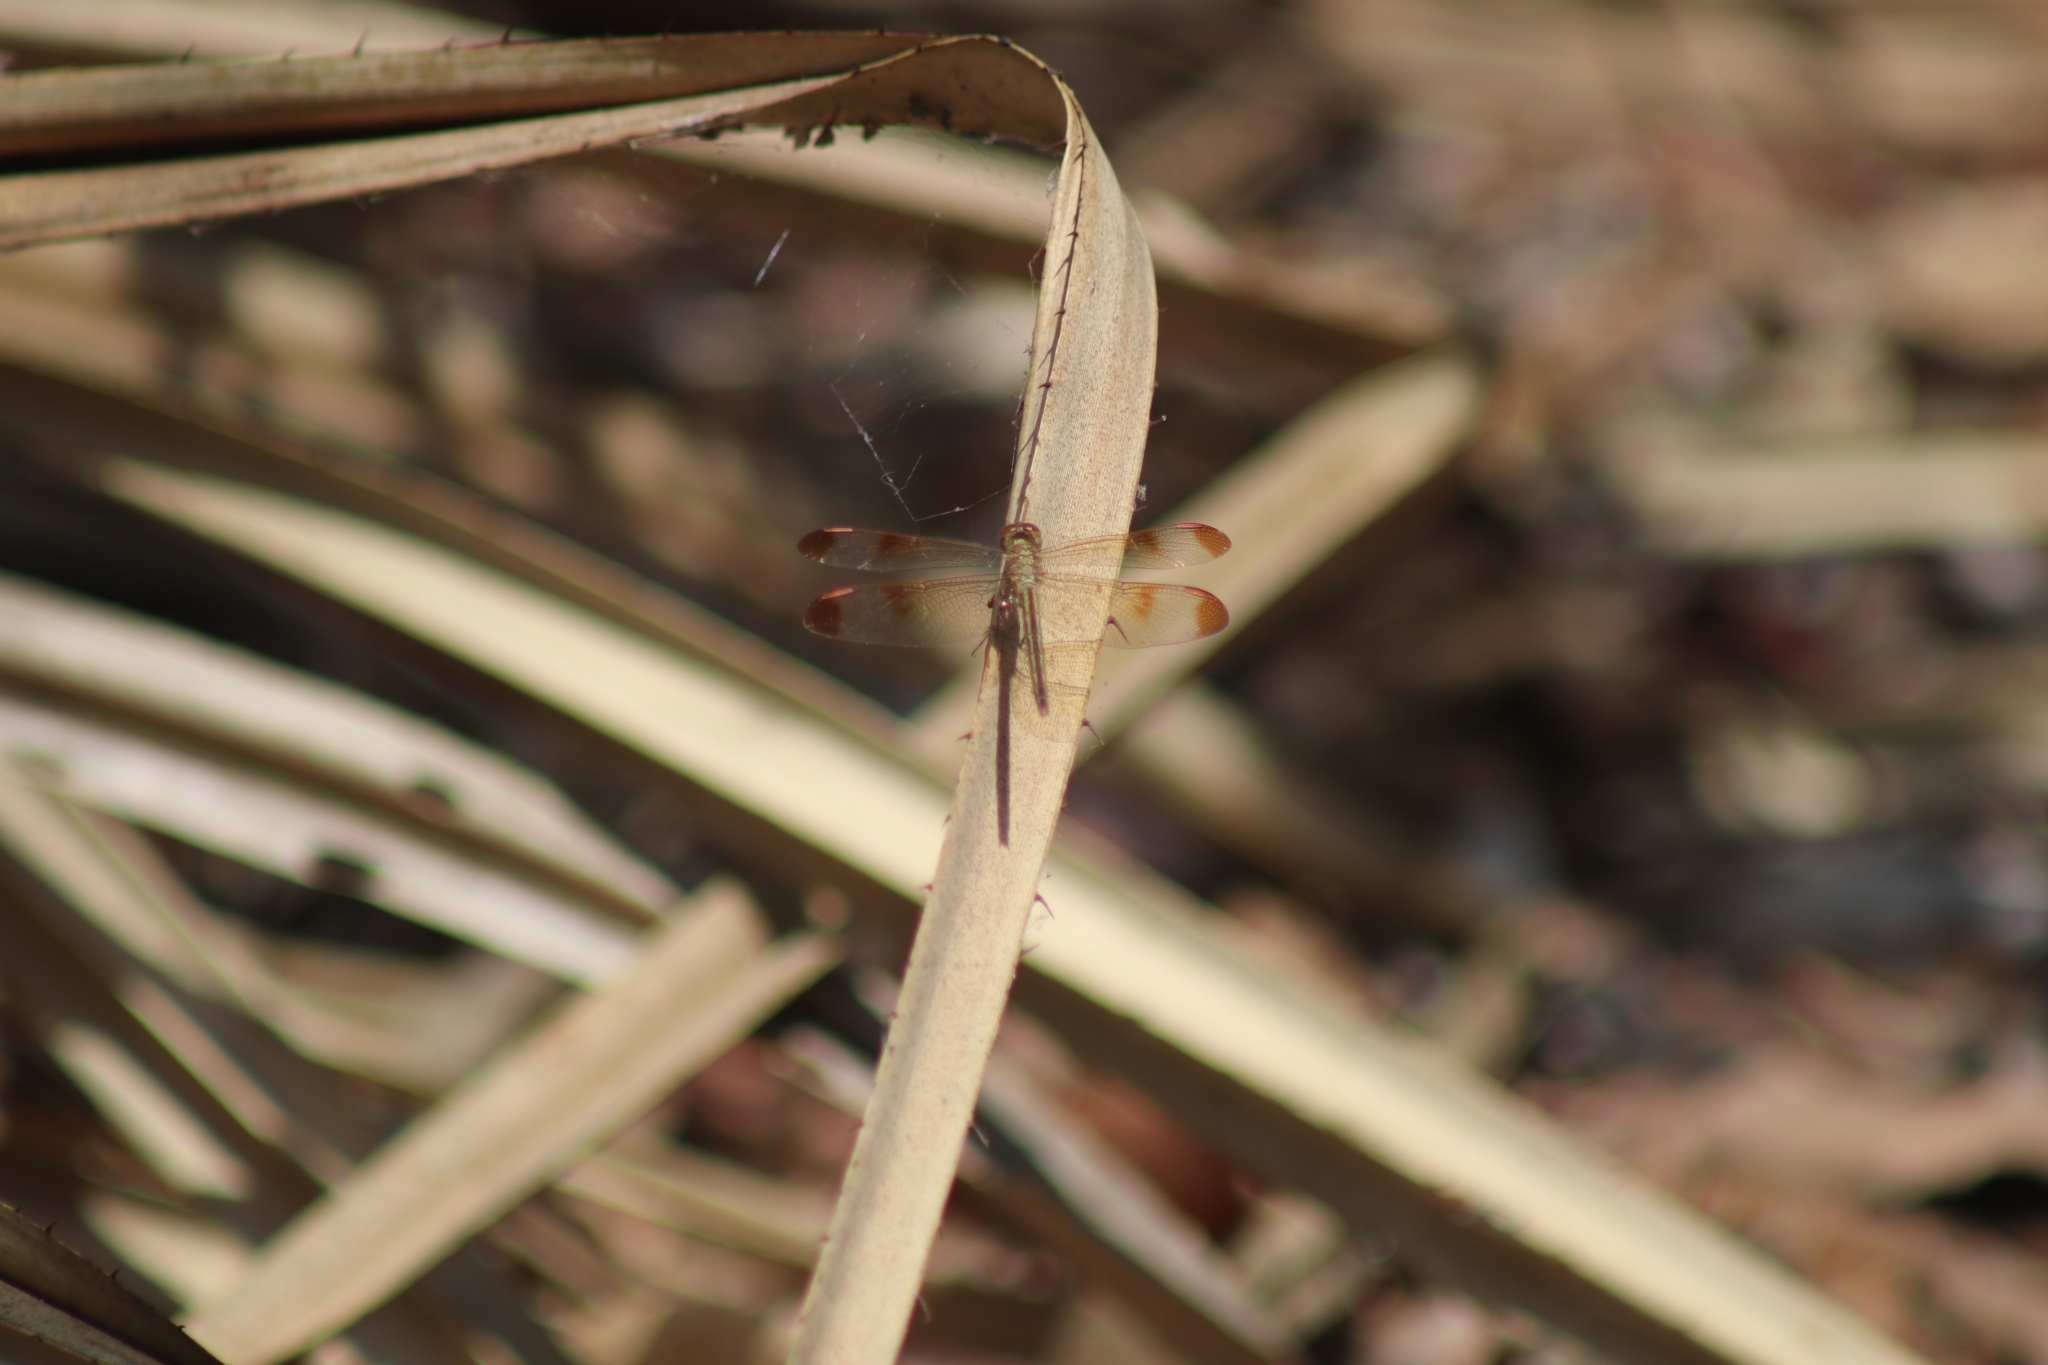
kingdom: Animalia
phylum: Arthropoda
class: Insecta
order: Odonata
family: Libellulidae
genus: Neurothemis
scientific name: Neurothemis stigmatizans
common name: Painted grasshawk
